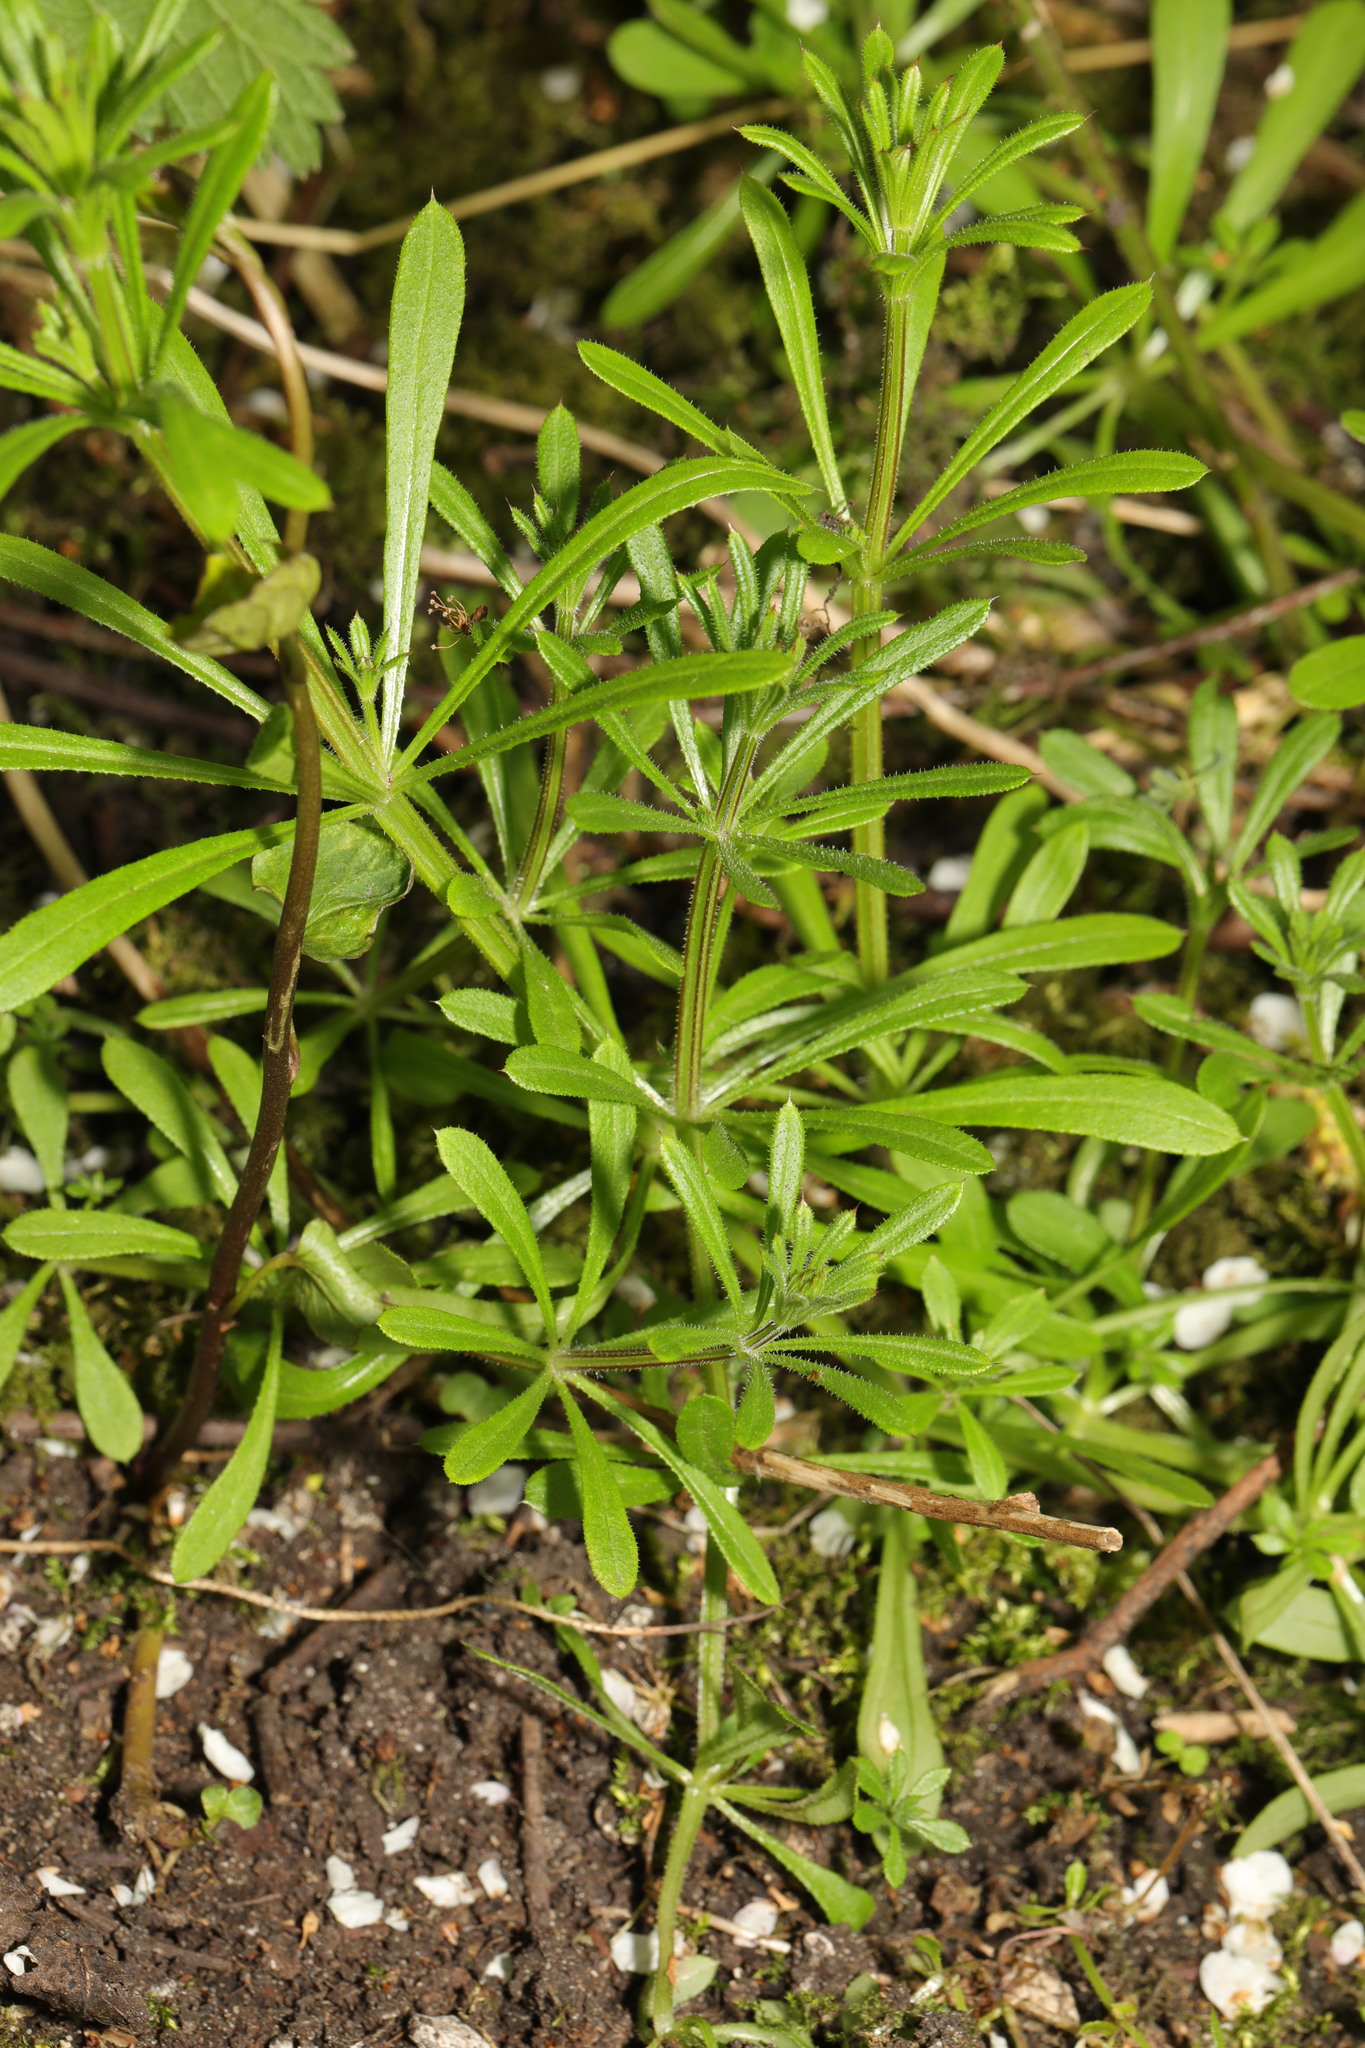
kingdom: Plantae
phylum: Tracheophyta
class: Magnoliopsida
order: Gentianales
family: Rubiaceae
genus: Galium
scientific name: Galium aparine
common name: Cleavers
